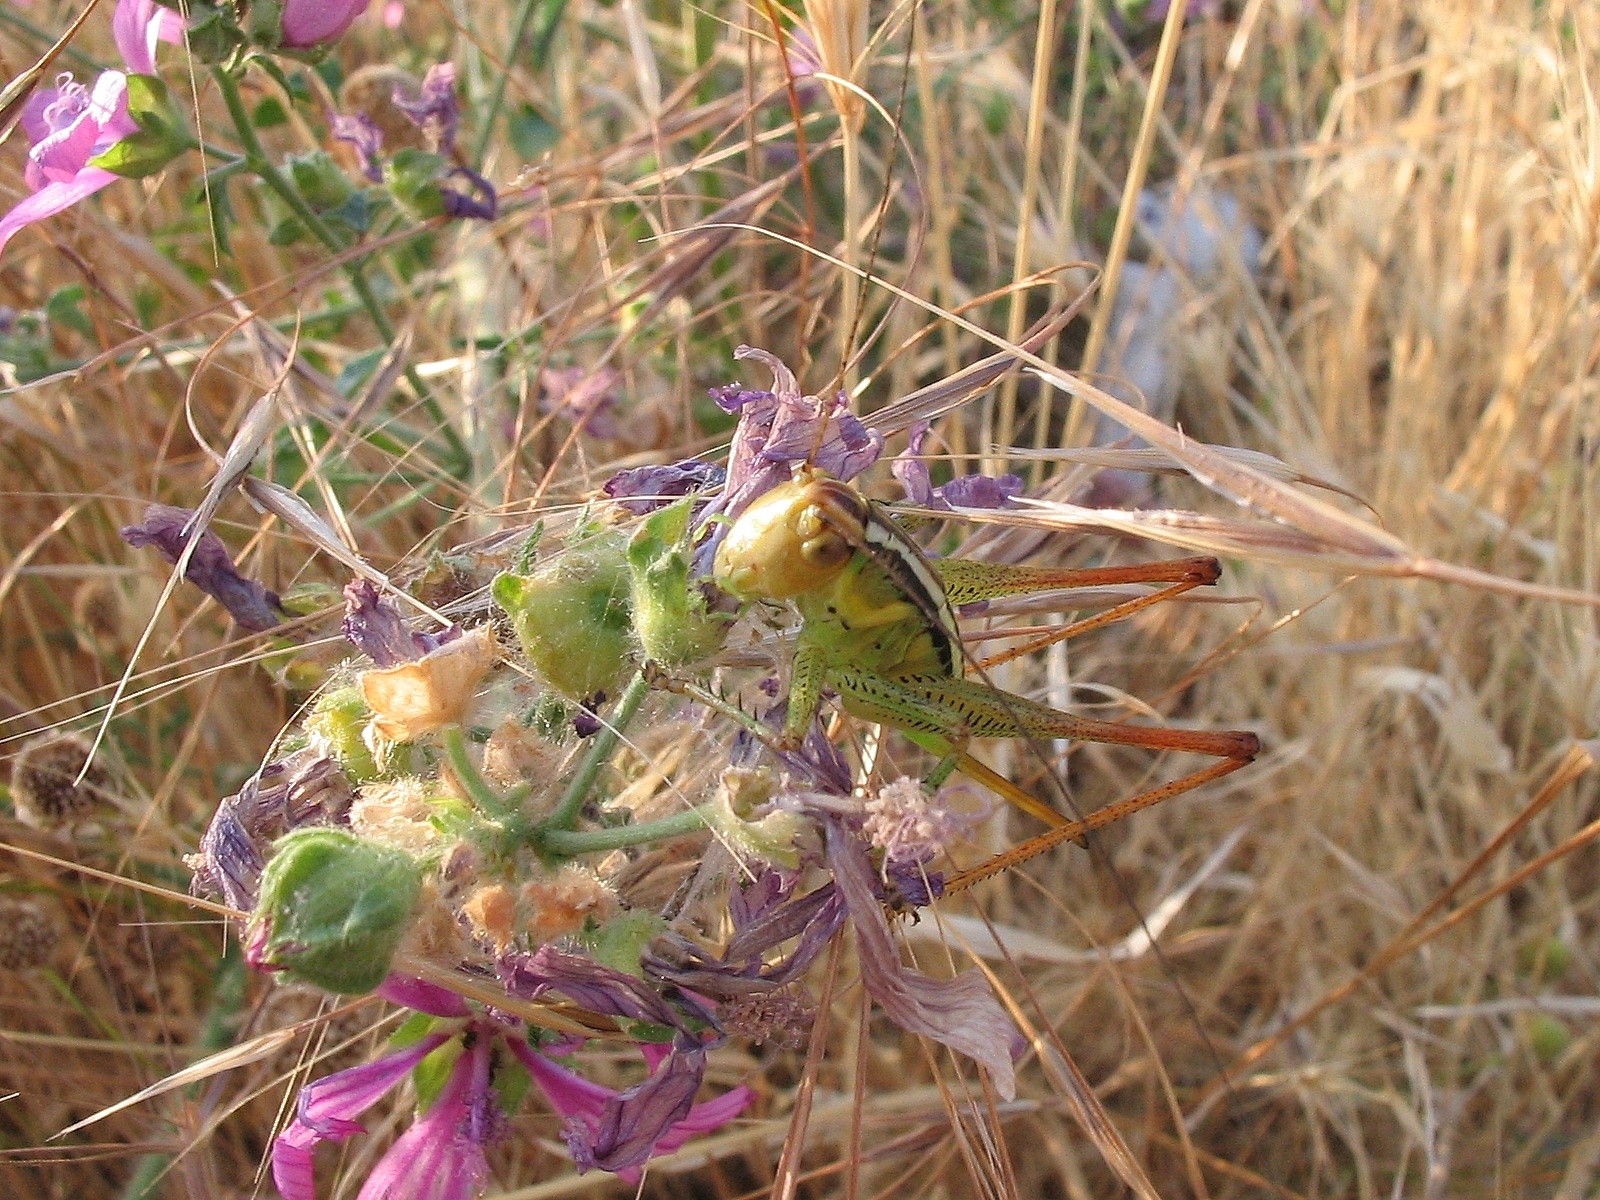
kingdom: Animalia
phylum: Arthropoda
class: Insecta
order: Orthoptera
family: Tettigoniidae
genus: Pachytrachis
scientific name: Pachytrachis striolatus
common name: Striated bush-cricket
